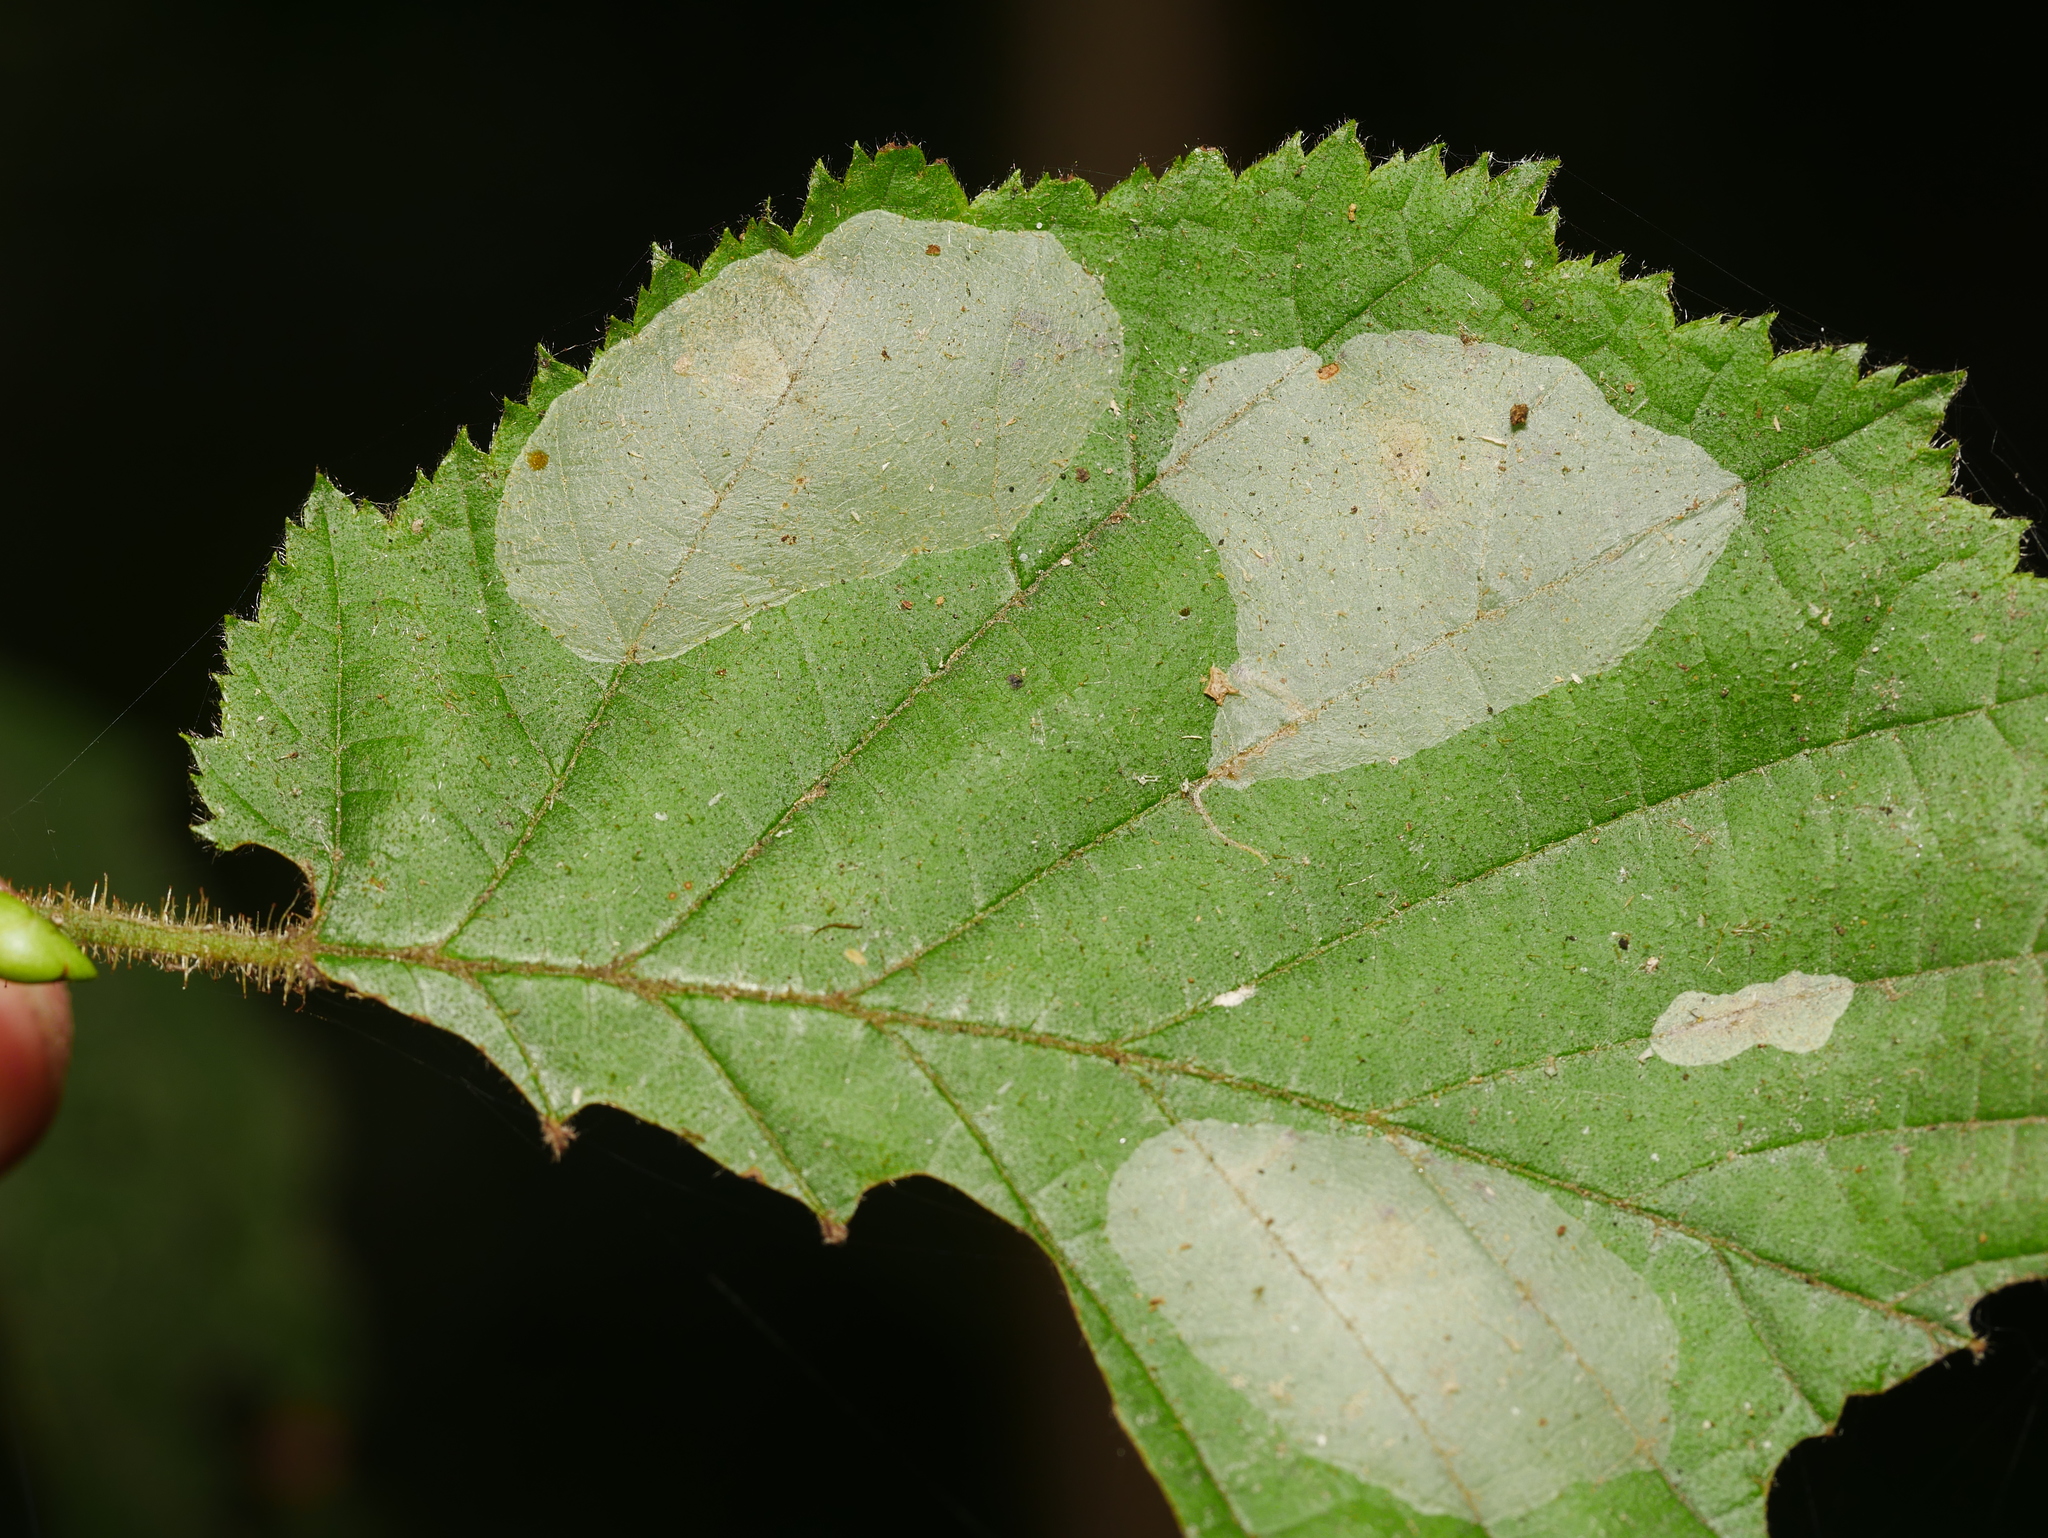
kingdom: Animalia
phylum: Arthropoda
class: Insecta
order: Lepidoptera
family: Gracillariidae
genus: Phyllonorycter
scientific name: Phyllonorycter coryli
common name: Nut-leaf blister moth
